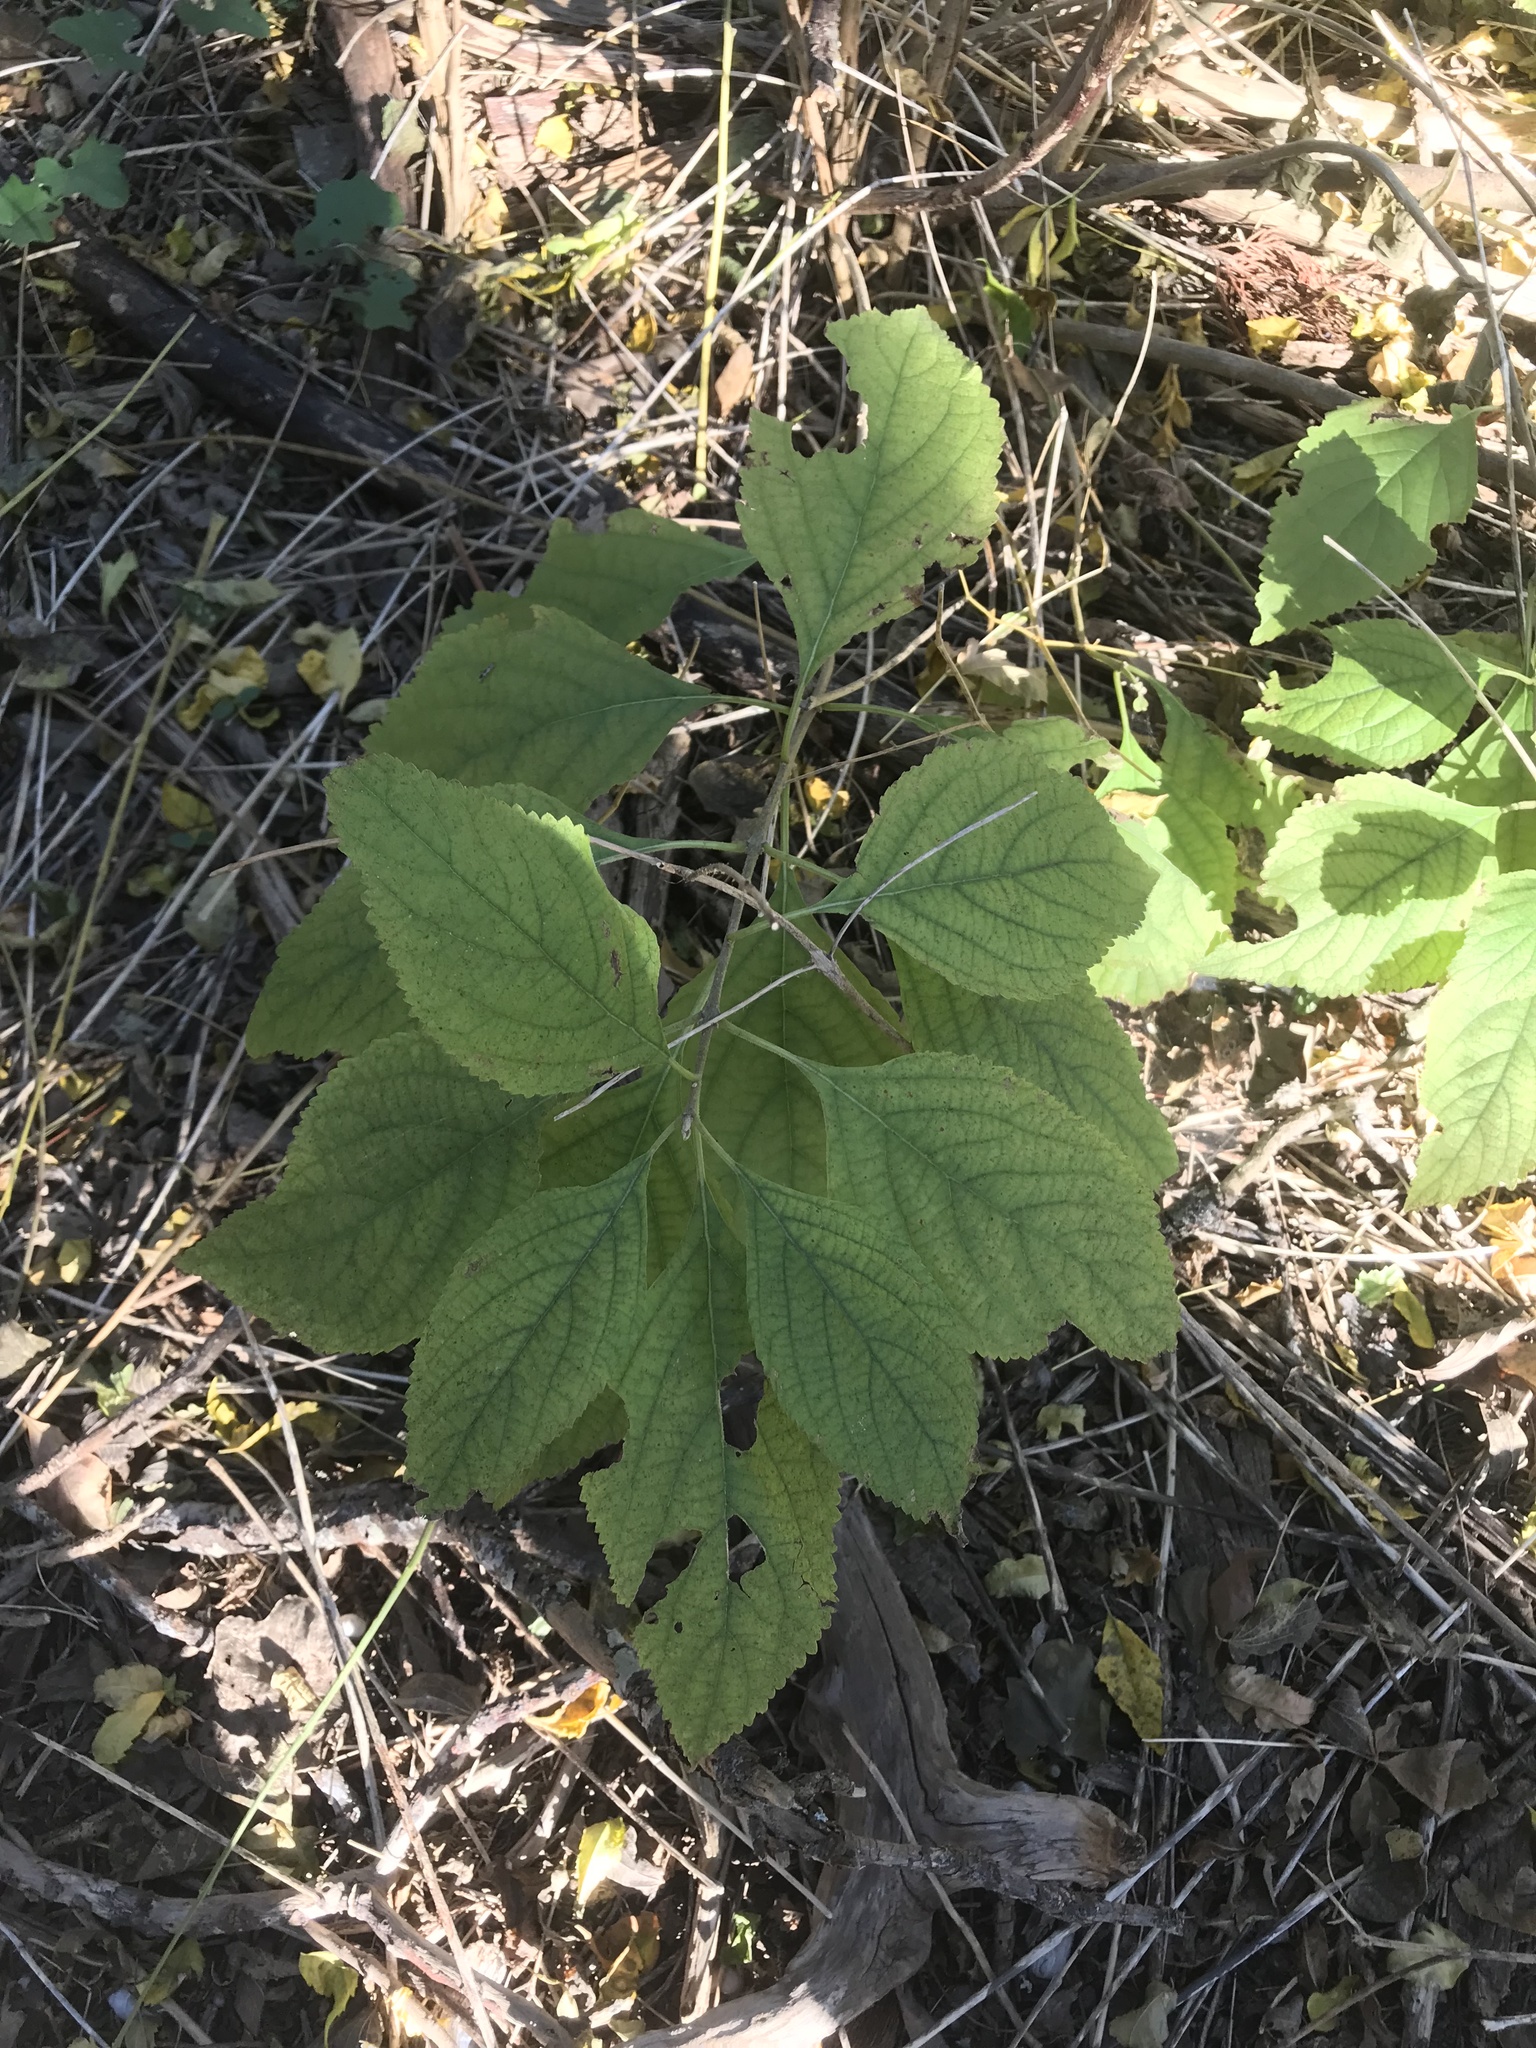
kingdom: Plantae
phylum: Tracheophyta
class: Magnoliopsida
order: Lamiales
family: Lamiaceae
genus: Callicarpa
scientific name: Callicarpa americana
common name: American beautyberry
